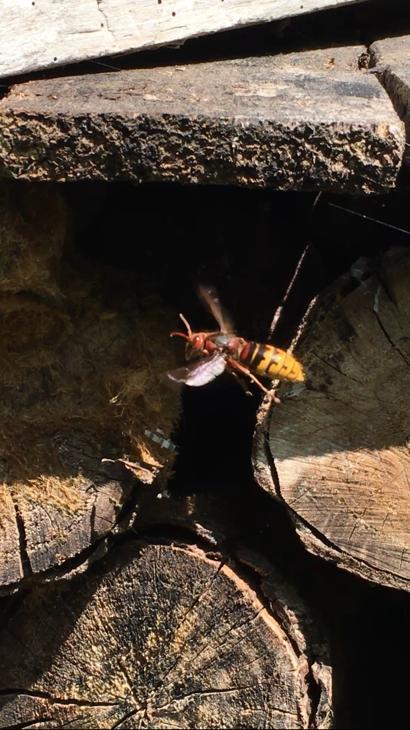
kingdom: Animalia
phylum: Arthropoda
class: Insecta
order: Hymenoptera
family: Vespidae
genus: Vespa
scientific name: Vespa crabro
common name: Hornet
